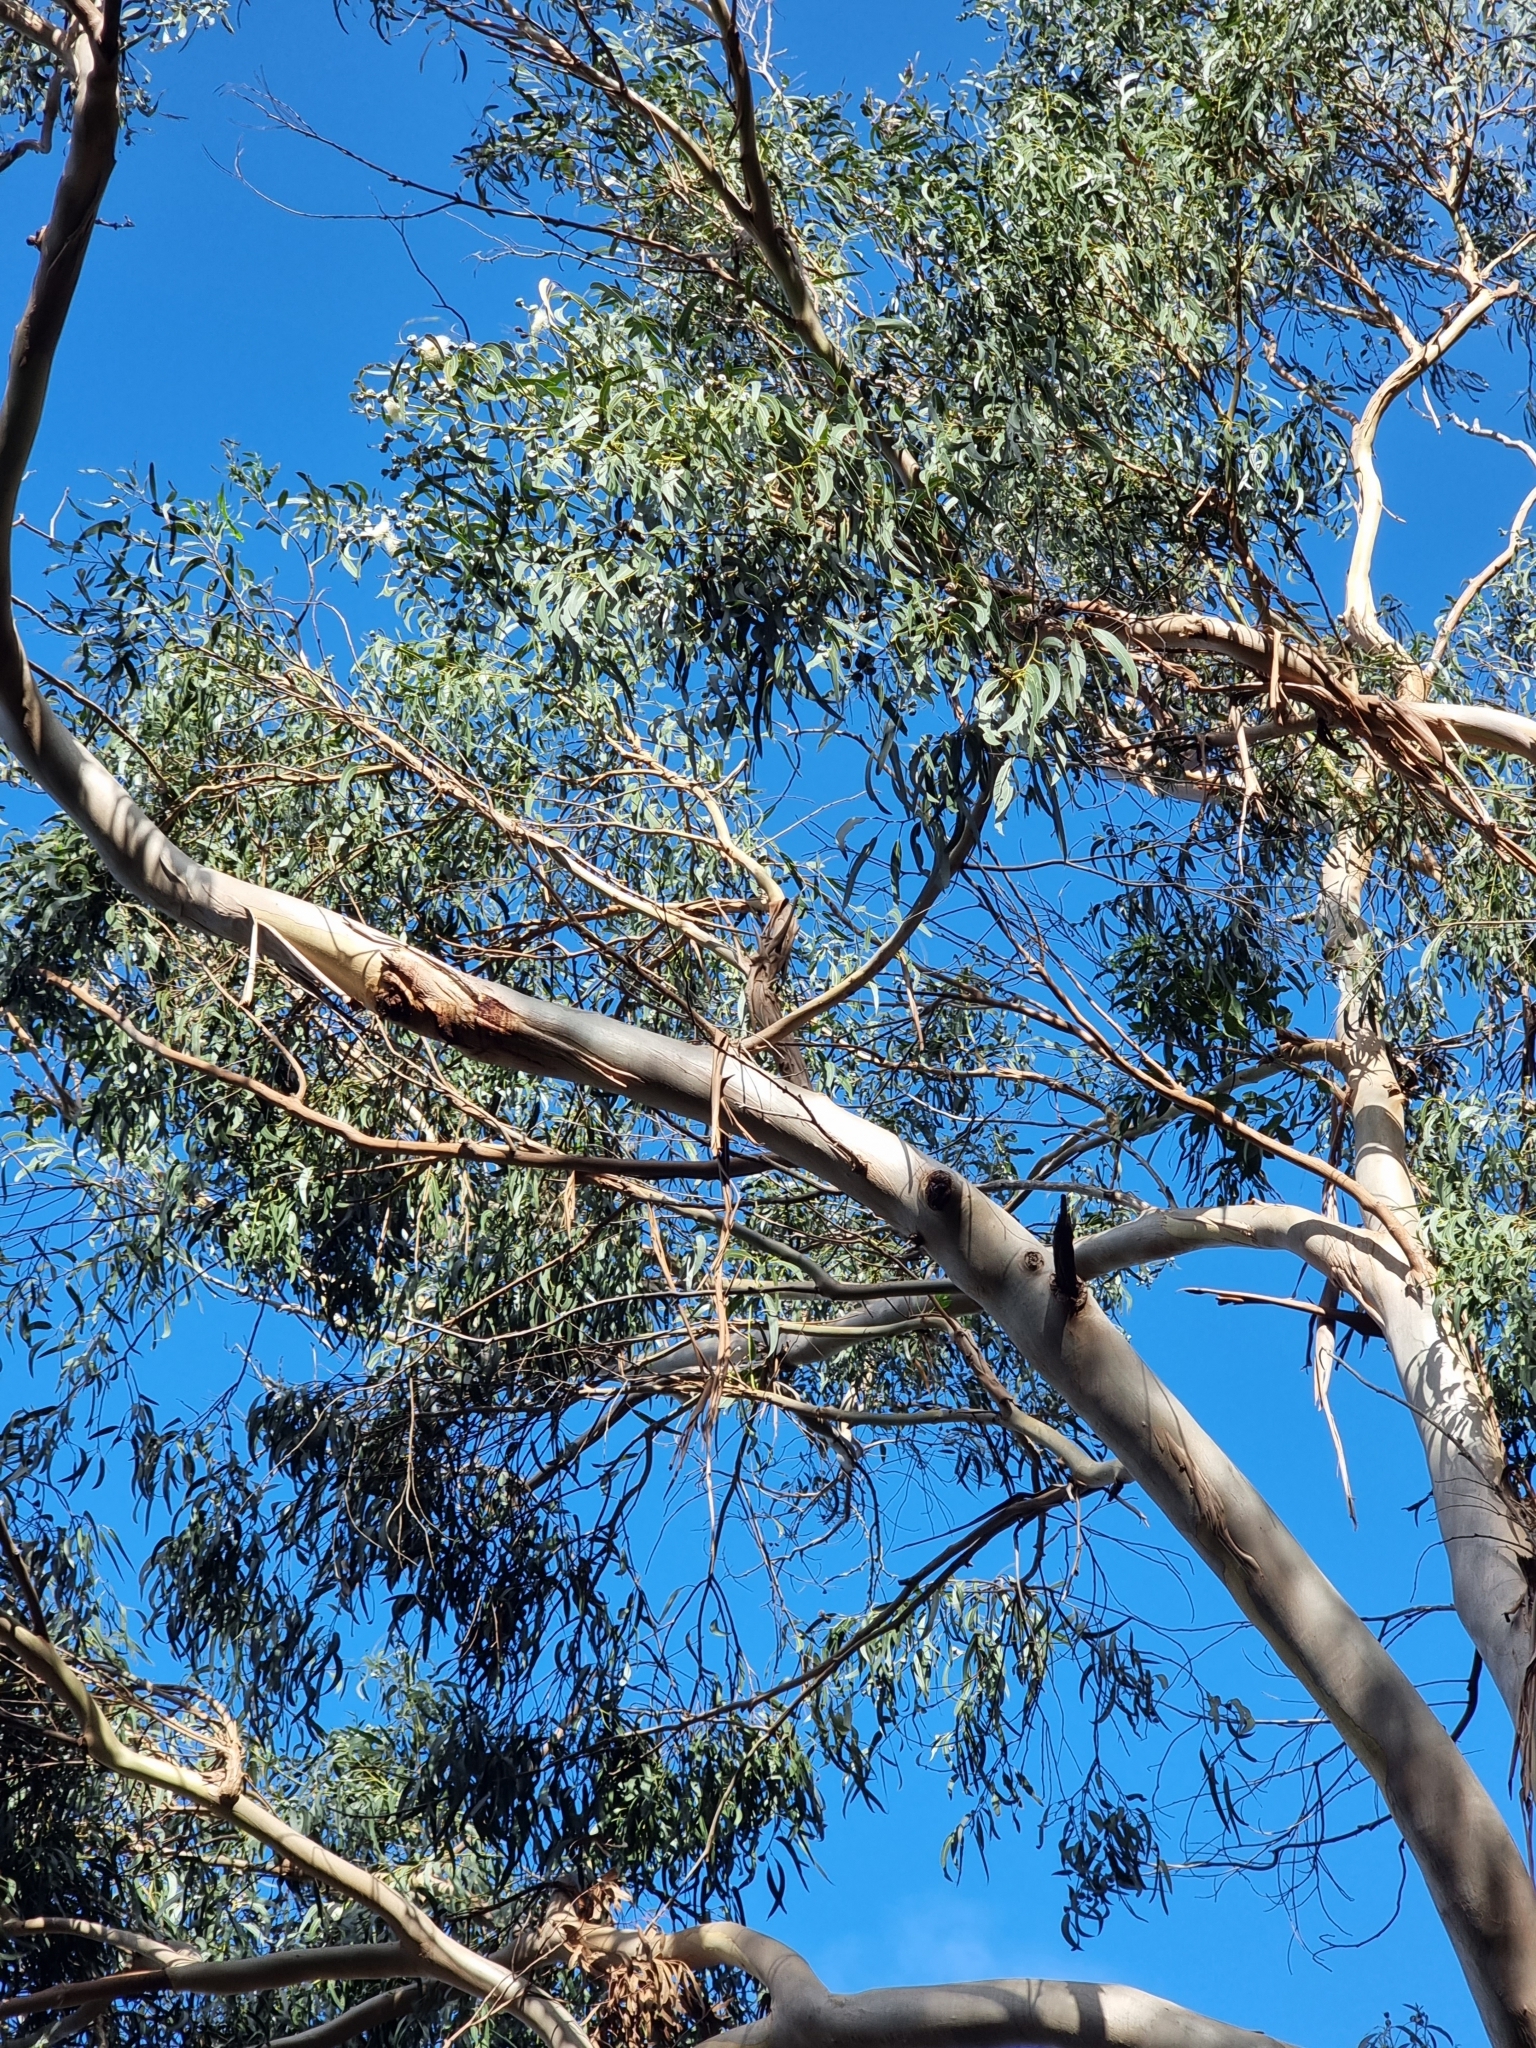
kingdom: Plantae
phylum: Tracheophyta
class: Magnoliopsida
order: Myrtales
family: Myrtaceae
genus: Eucalyptus
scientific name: Eucalyptus globulus
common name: Southern blue-gum
